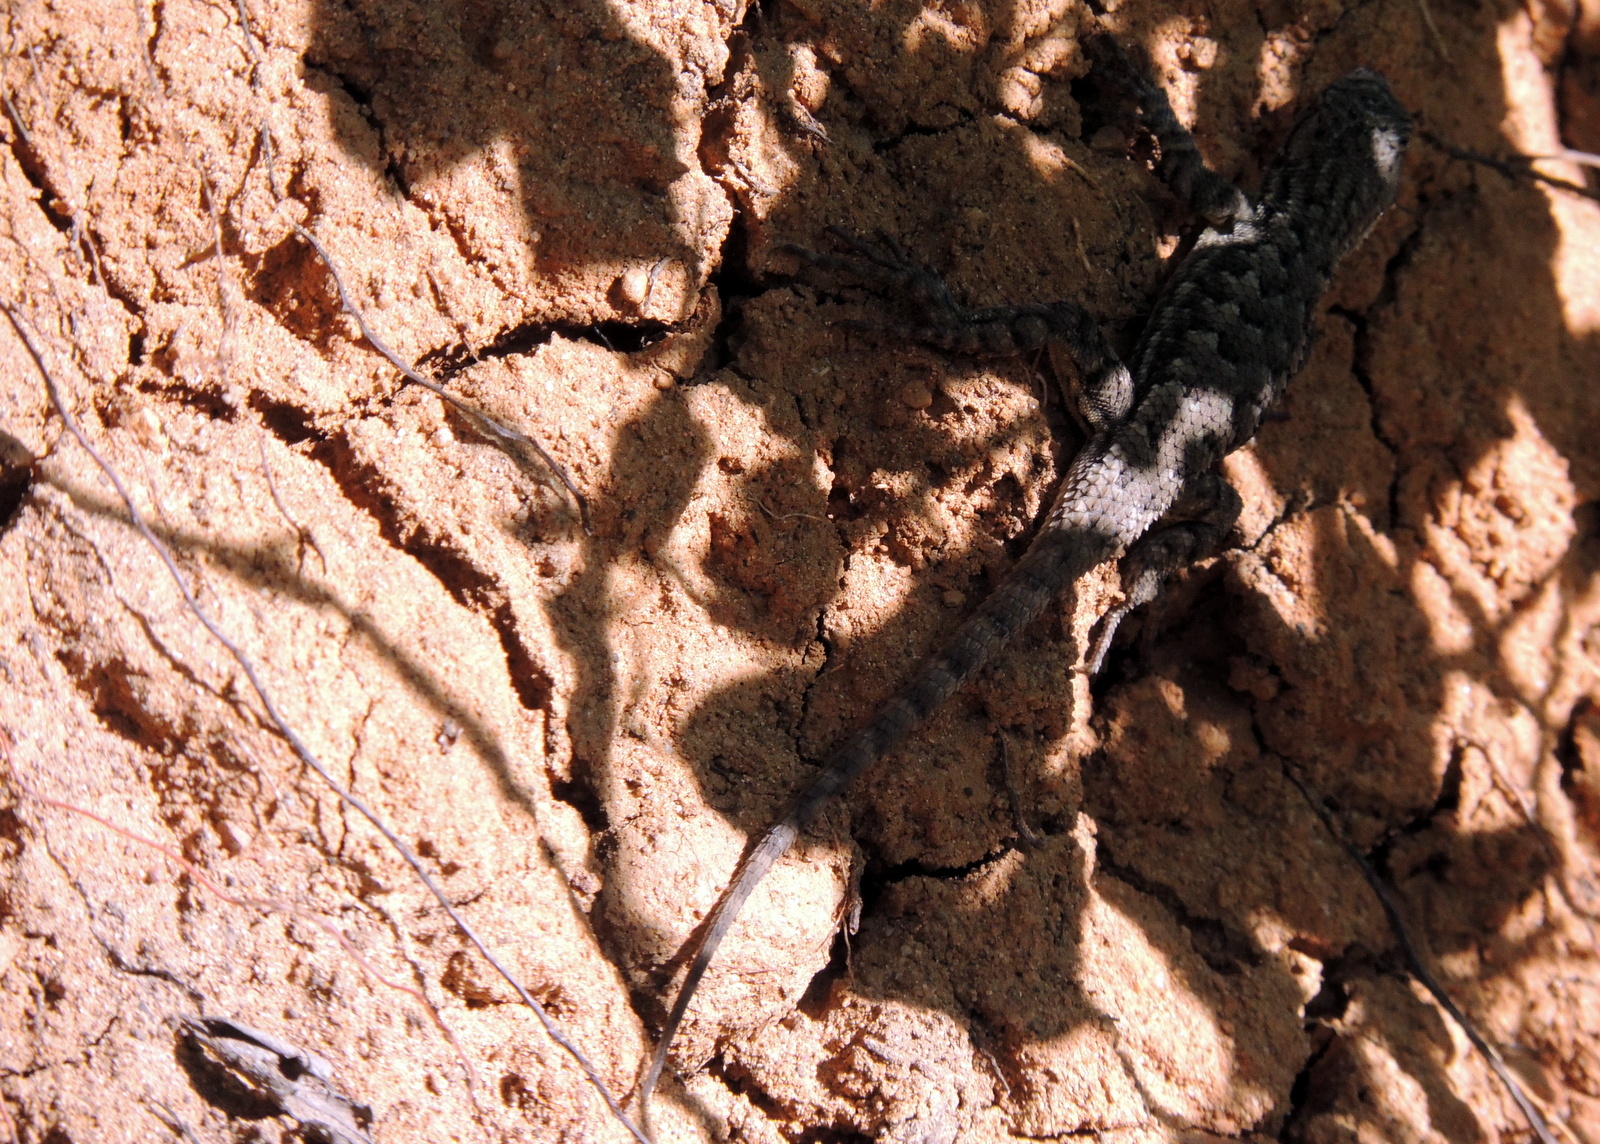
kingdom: Animalia
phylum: Chordata
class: Squamata
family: Phrynosomatidae
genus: Sceloporus
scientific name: Sceloporus occidentalis
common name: Western fence lizard
